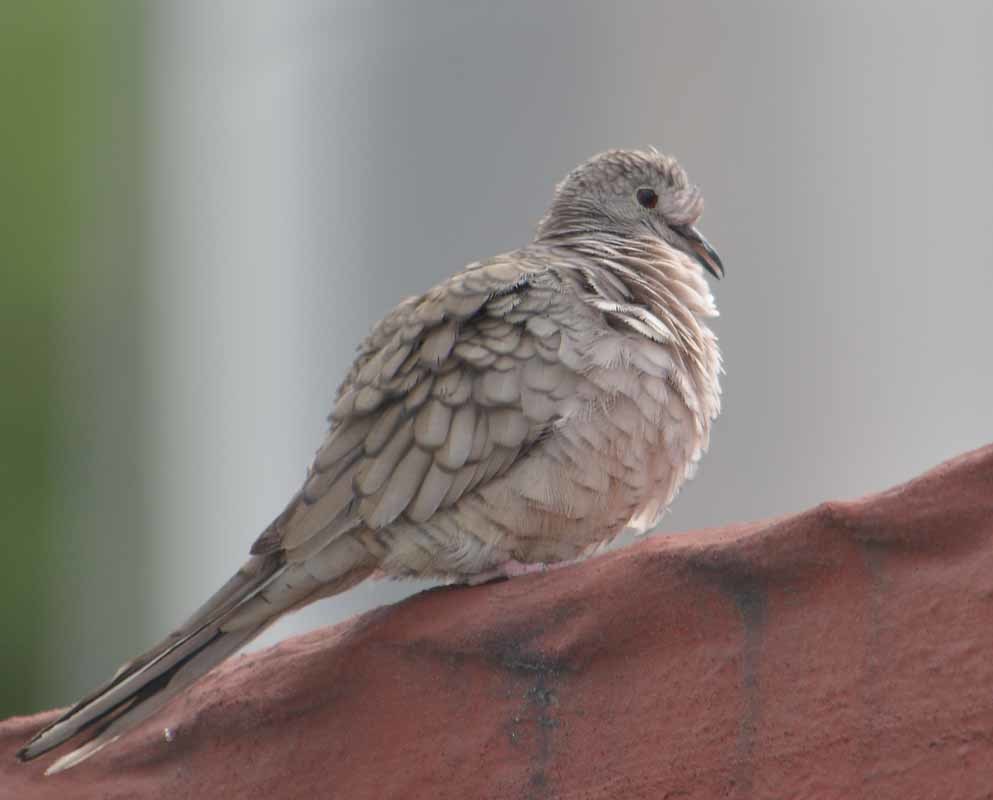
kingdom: Animalia
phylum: Chordata
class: Aves
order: Columbiformes
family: Columbidae
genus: Columbina
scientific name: Columbina inca
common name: Inca dove
